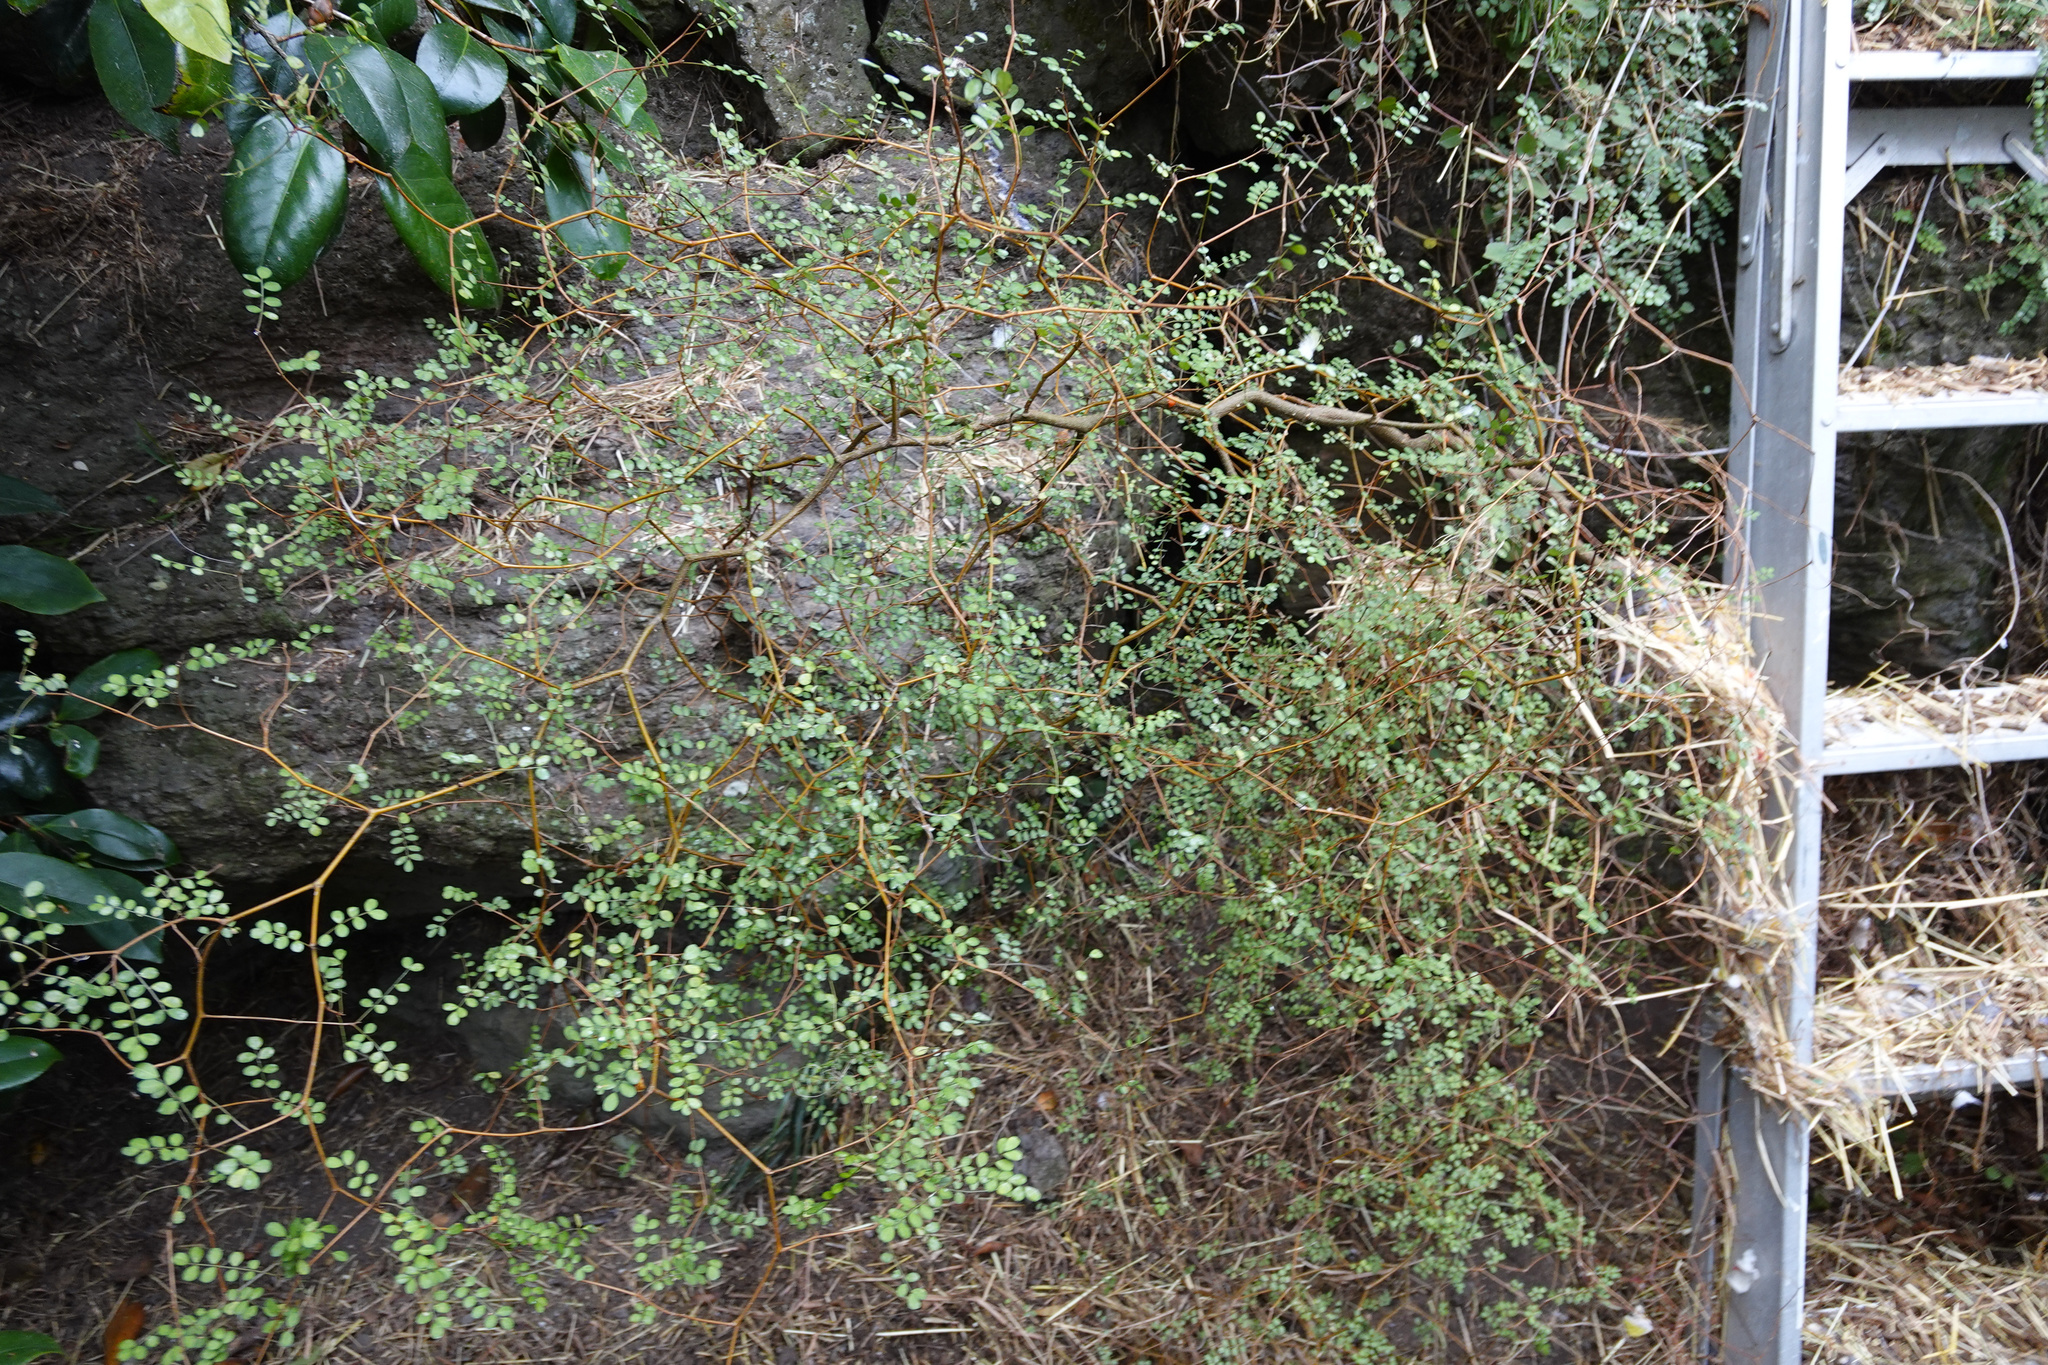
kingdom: Plantae
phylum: Tracheophyta
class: Magnoliopsida
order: Fabales
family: Fabaceae
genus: Sophora
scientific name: Sophora microphylla
